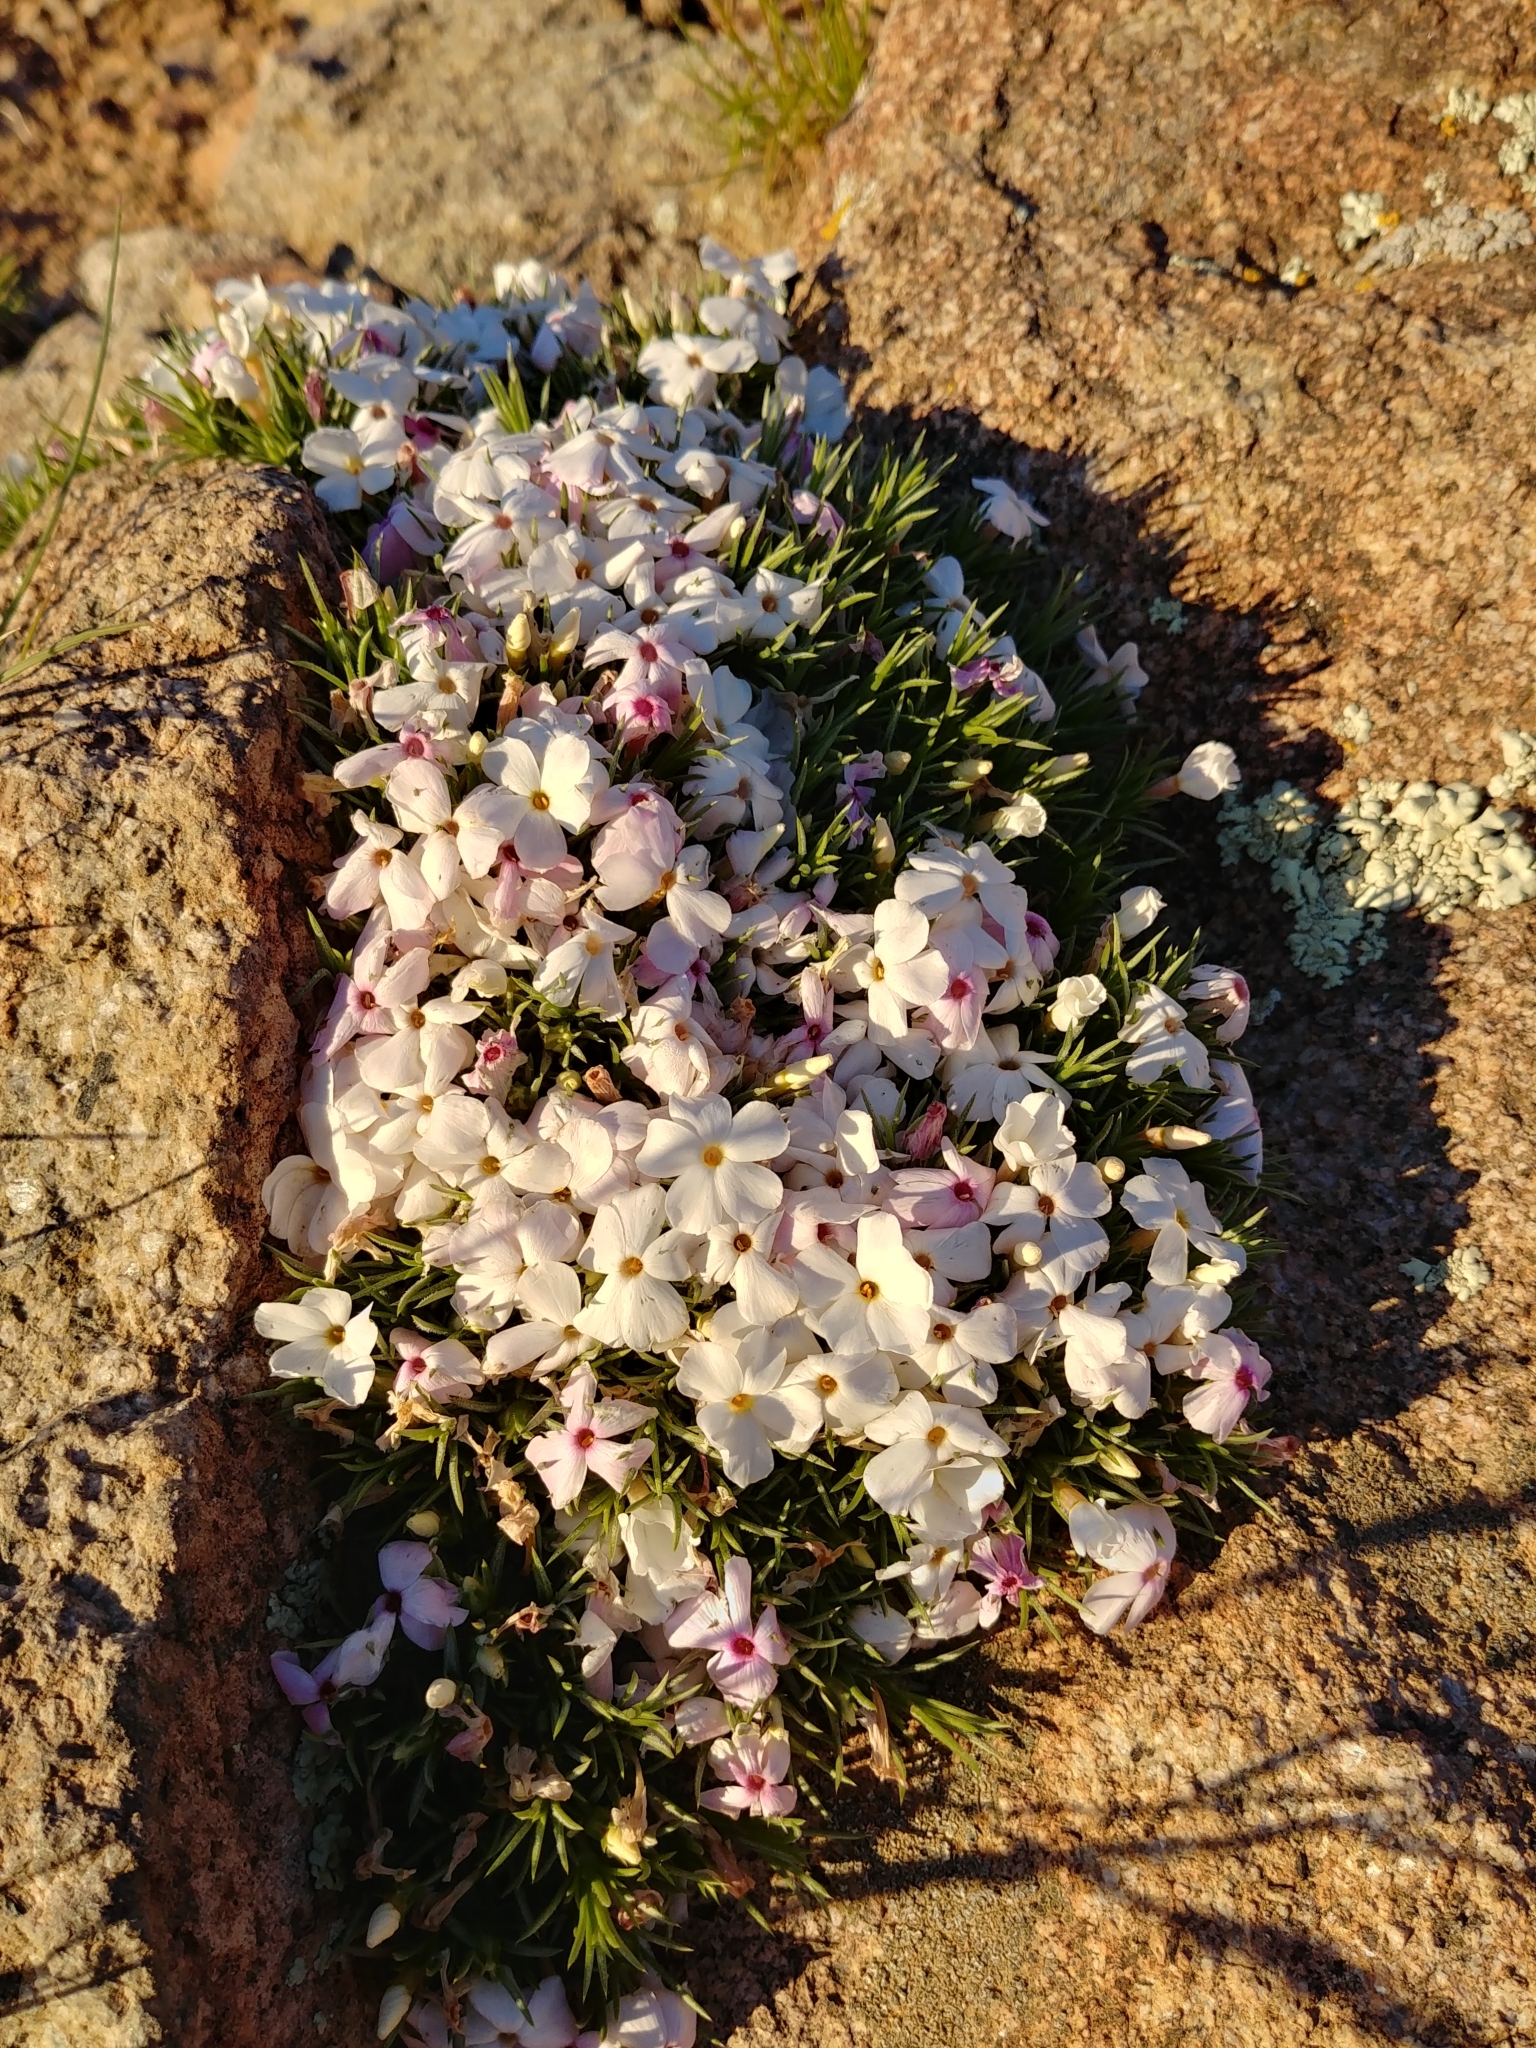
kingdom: Plantae
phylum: Tracheophyta
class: Magnoliopsida
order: Ericales
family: Polemoniaceae
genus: Phlox
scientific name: Phlox austromontana
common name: Desert phlox
